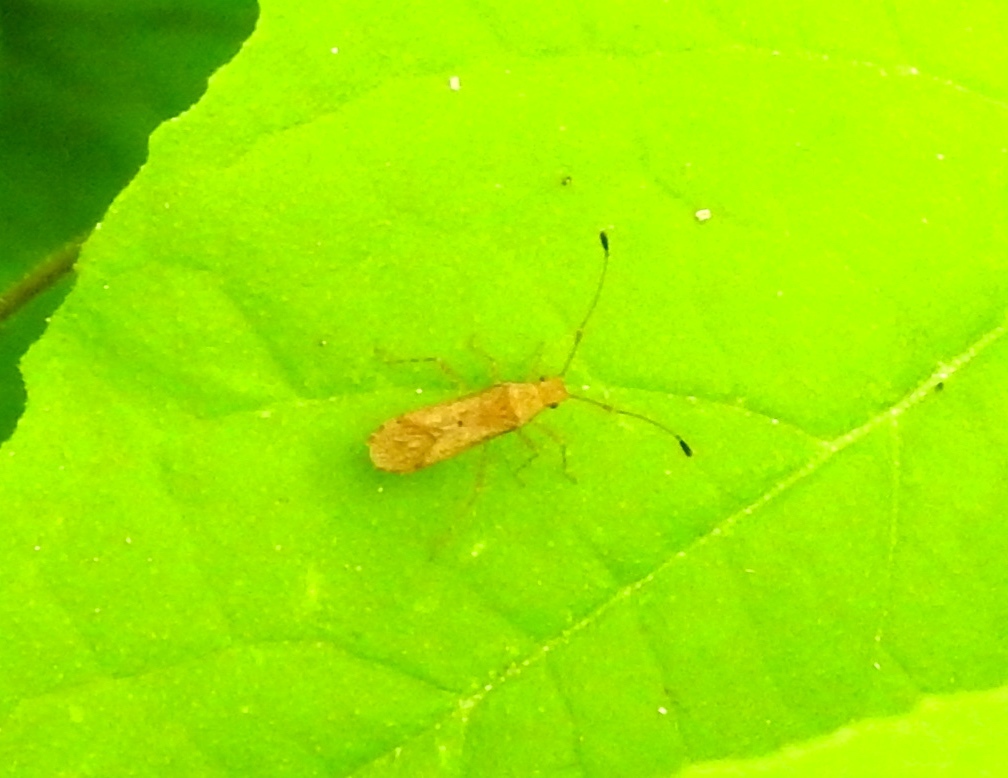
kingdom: Animalia
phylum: Arthropoda
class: Insecta
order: Hemiptera
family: Coreidae
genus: Madura
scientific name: Madura
